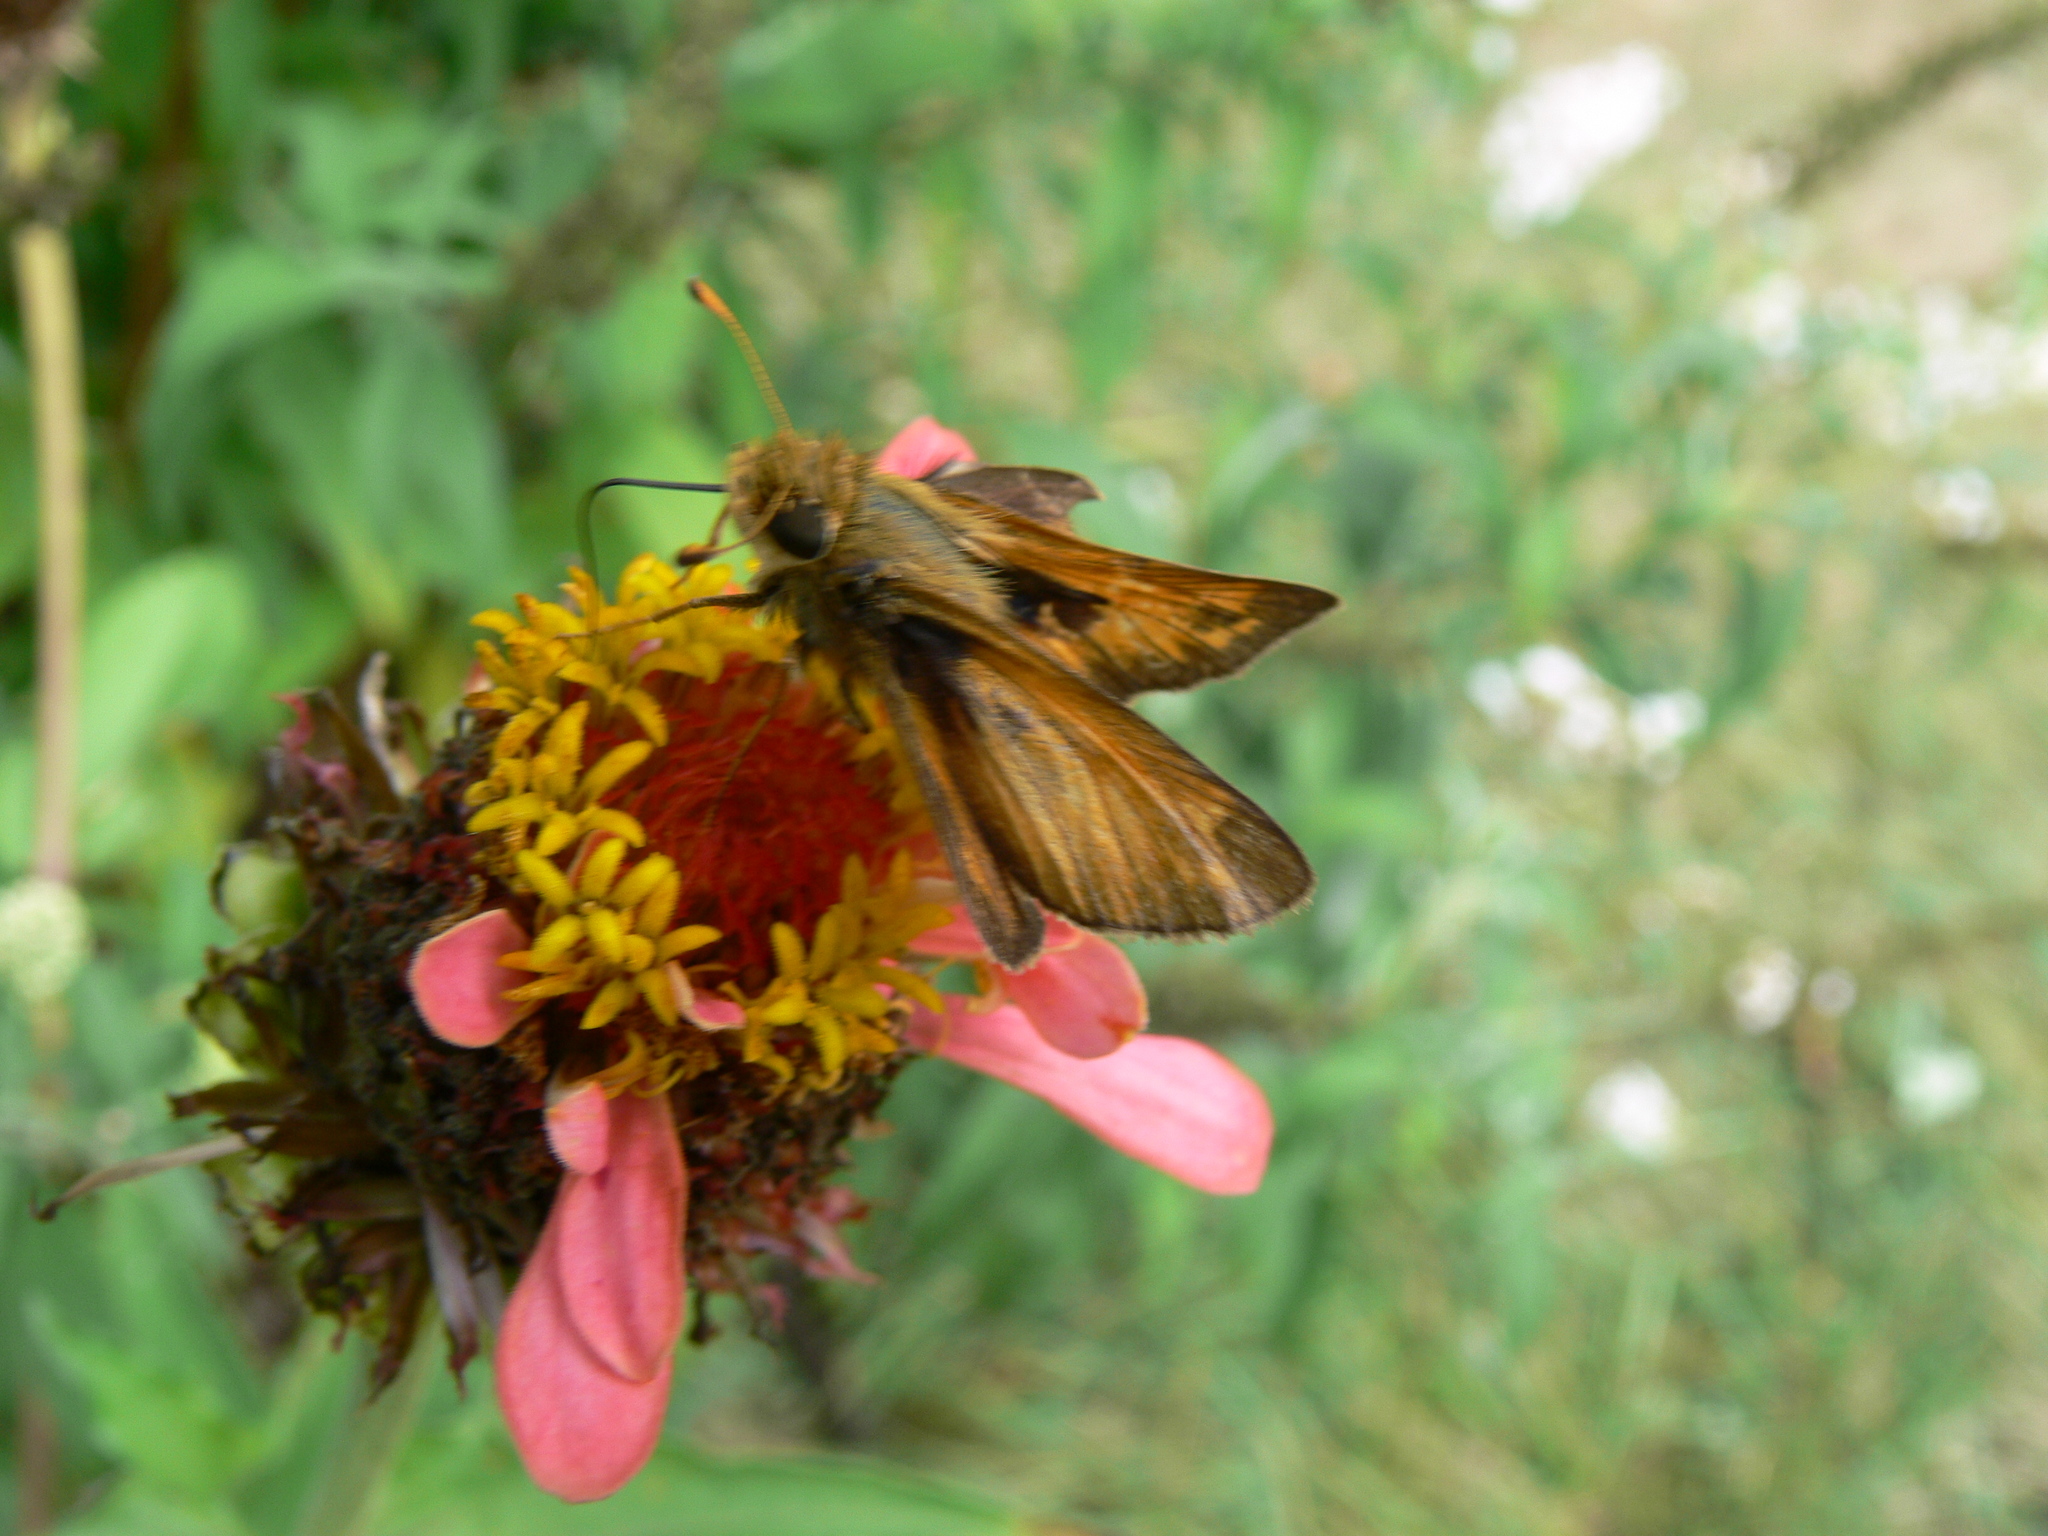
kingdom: Animalia
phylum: Arthropoda
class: Insecta
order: Lepidoptera
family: Hesperiidae
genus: Atalopedes
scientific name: Atalopedes
